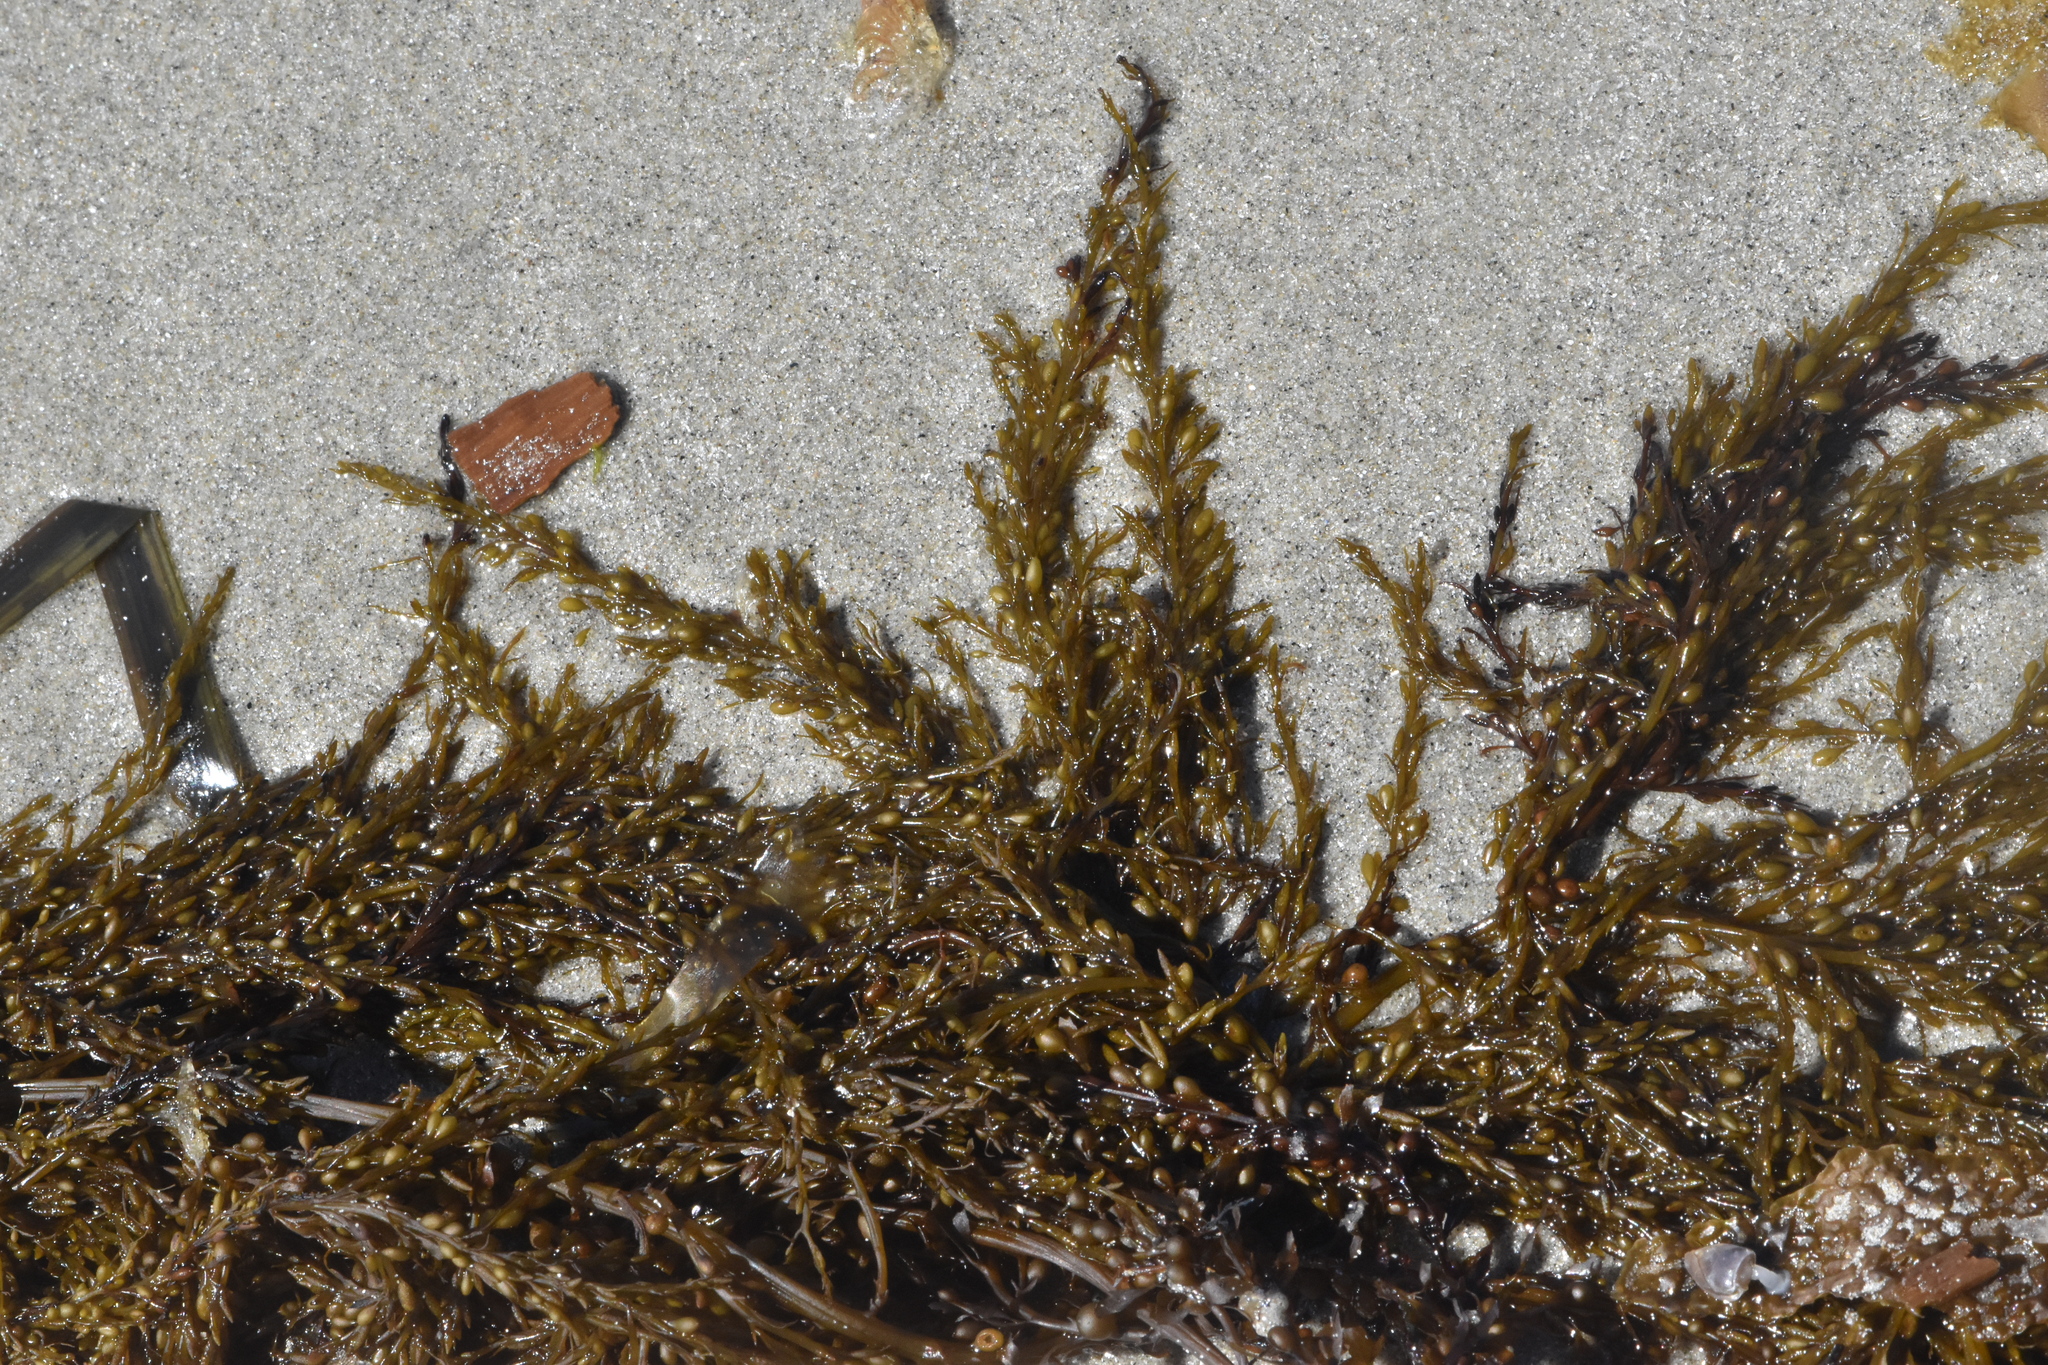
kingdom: Chromista
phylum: Ochrophyta
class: Phaeophyceae
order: Fucales
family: Sargassaceae
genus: Sargassum
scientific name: Sargassum muticum
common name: Japweed
